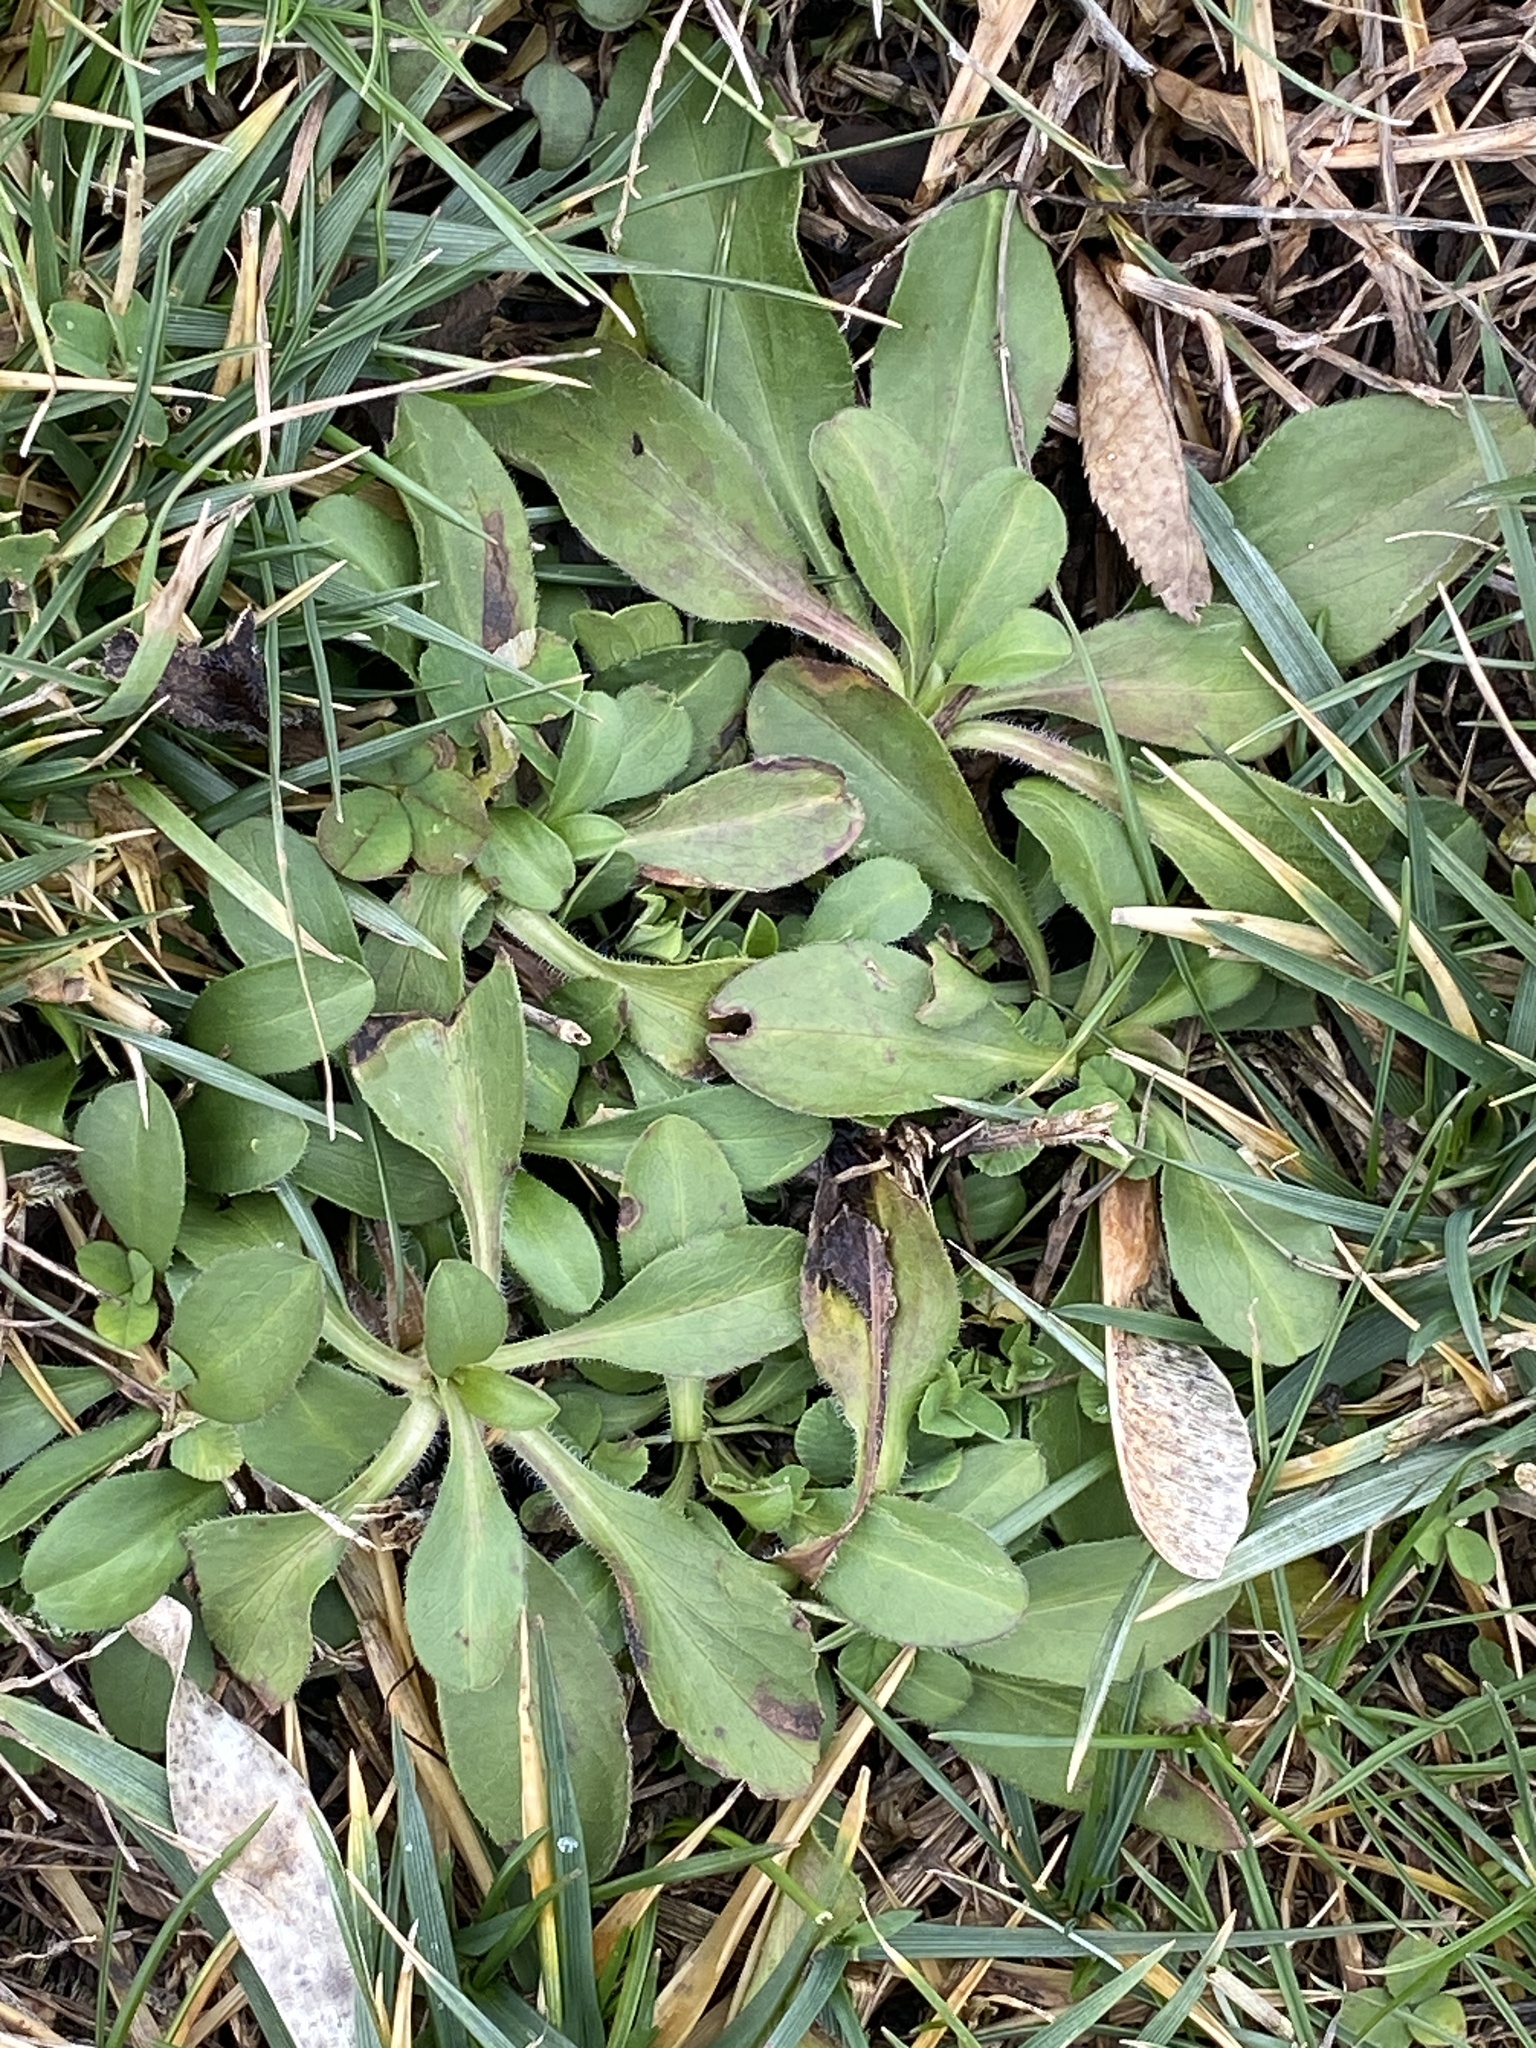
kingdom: Plantae
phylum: Tracheophyta
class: Magnoliopsida
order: Asterales
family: Asteraceae
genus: Bellis
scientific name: Bellis perennis
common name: Lawndaisy
